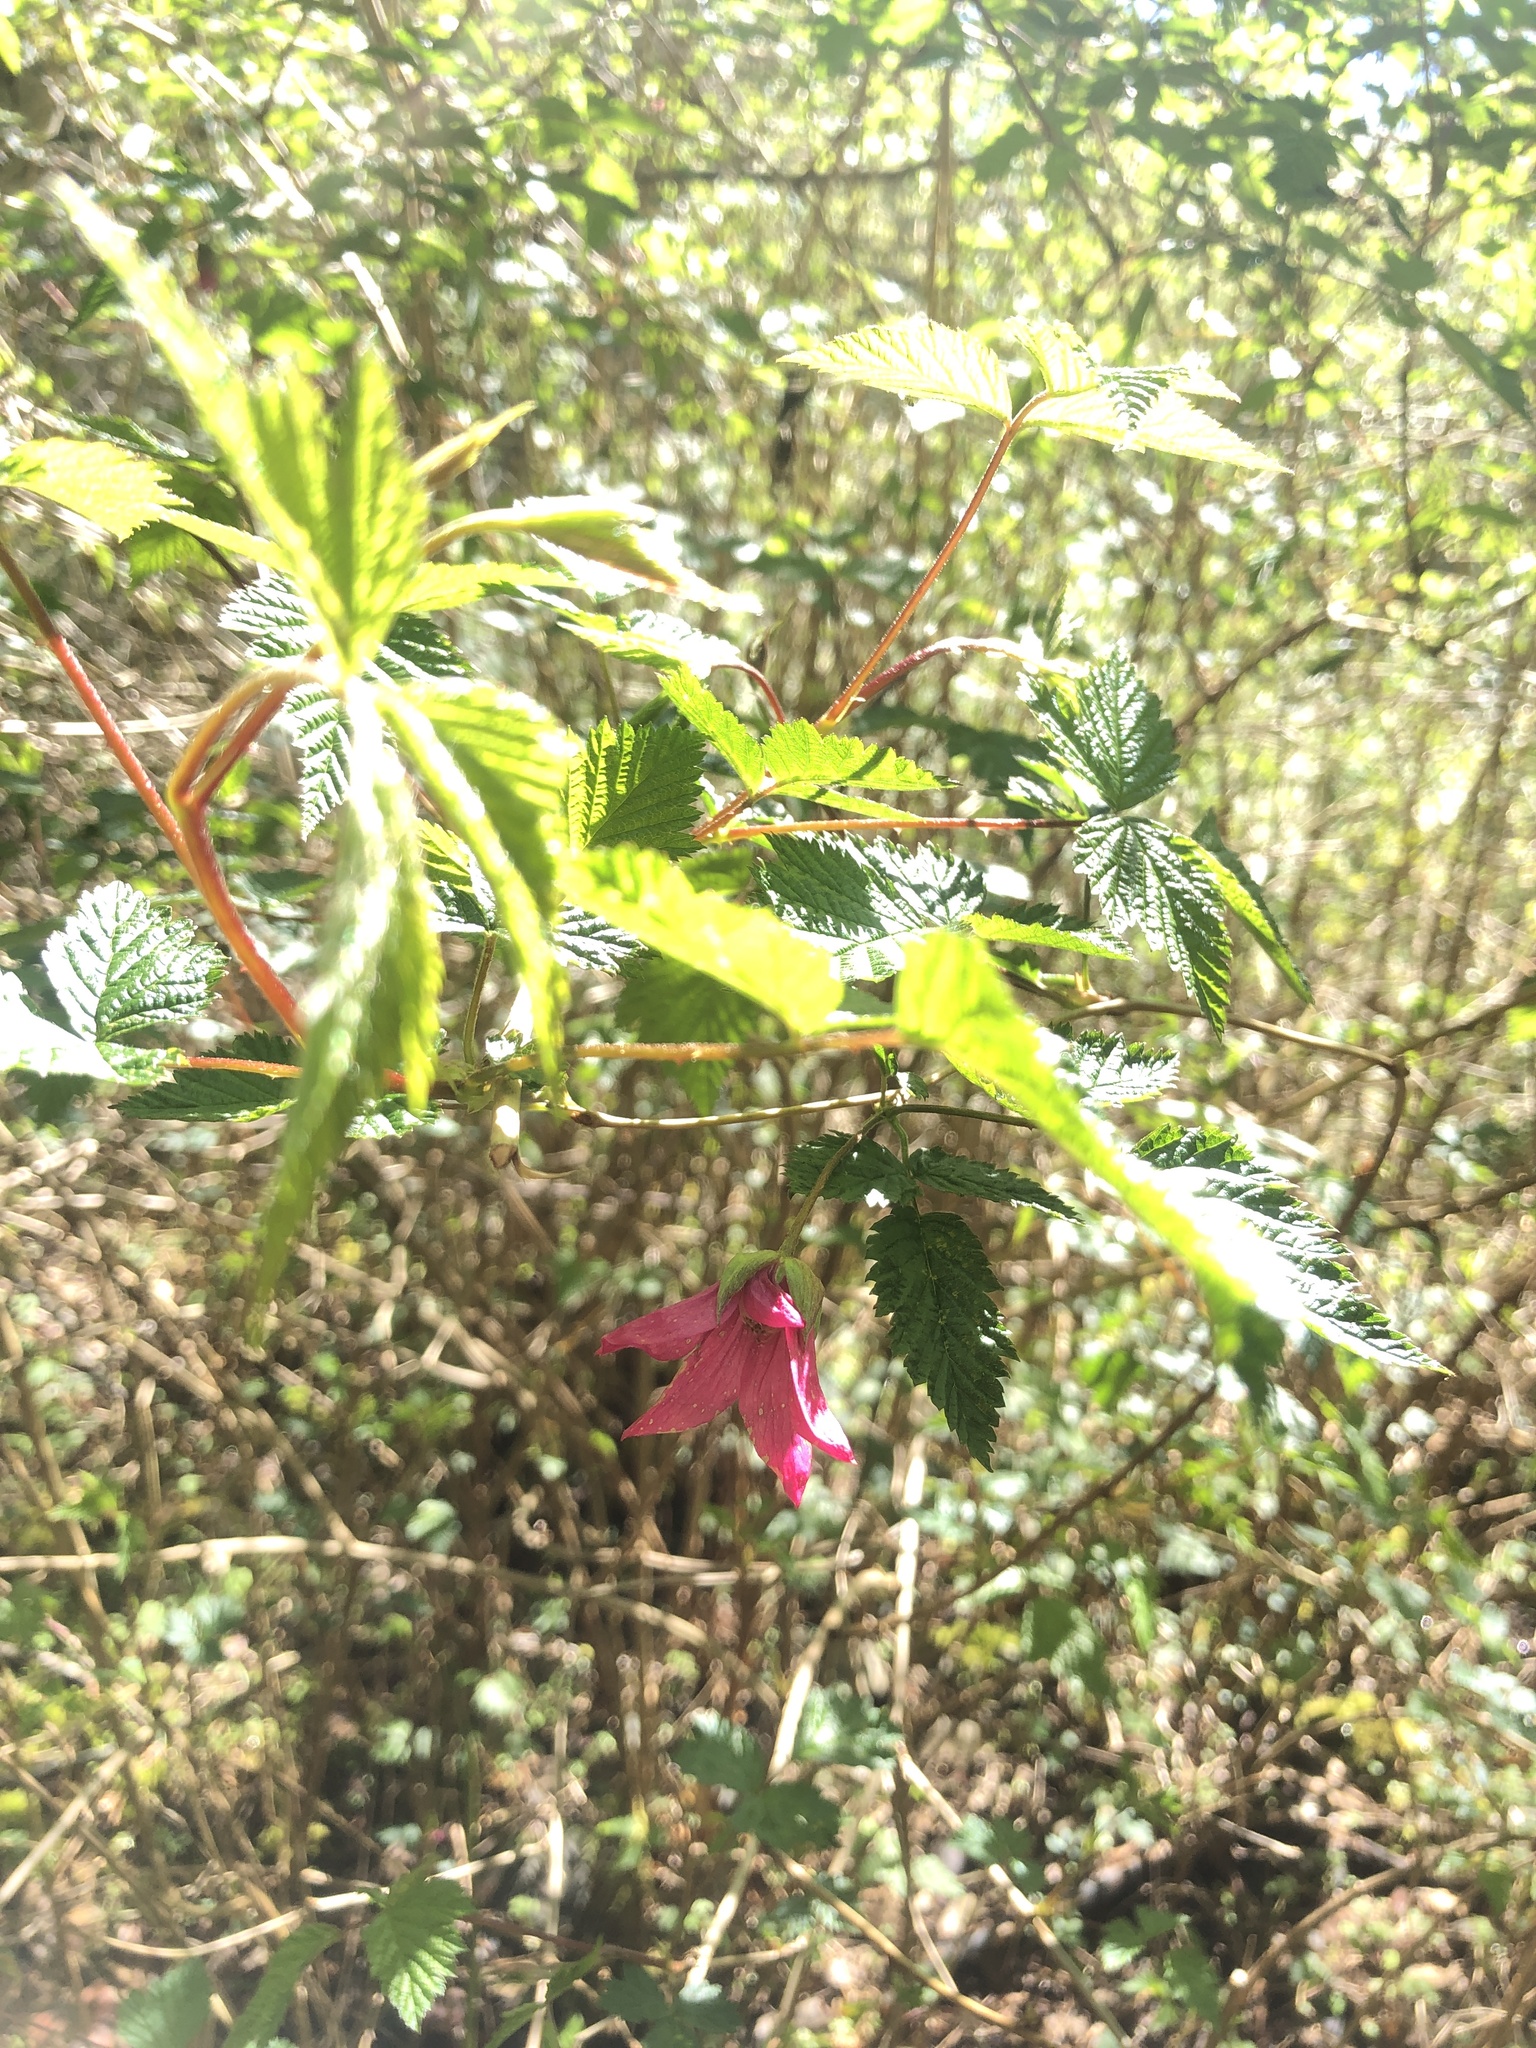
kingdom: Plantae
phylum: Tracheophyta
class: Magnoliopsida
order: Rosales
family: Rosaceae
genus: Rubus
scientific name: Rubus spectabilis
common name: Salmonberry
